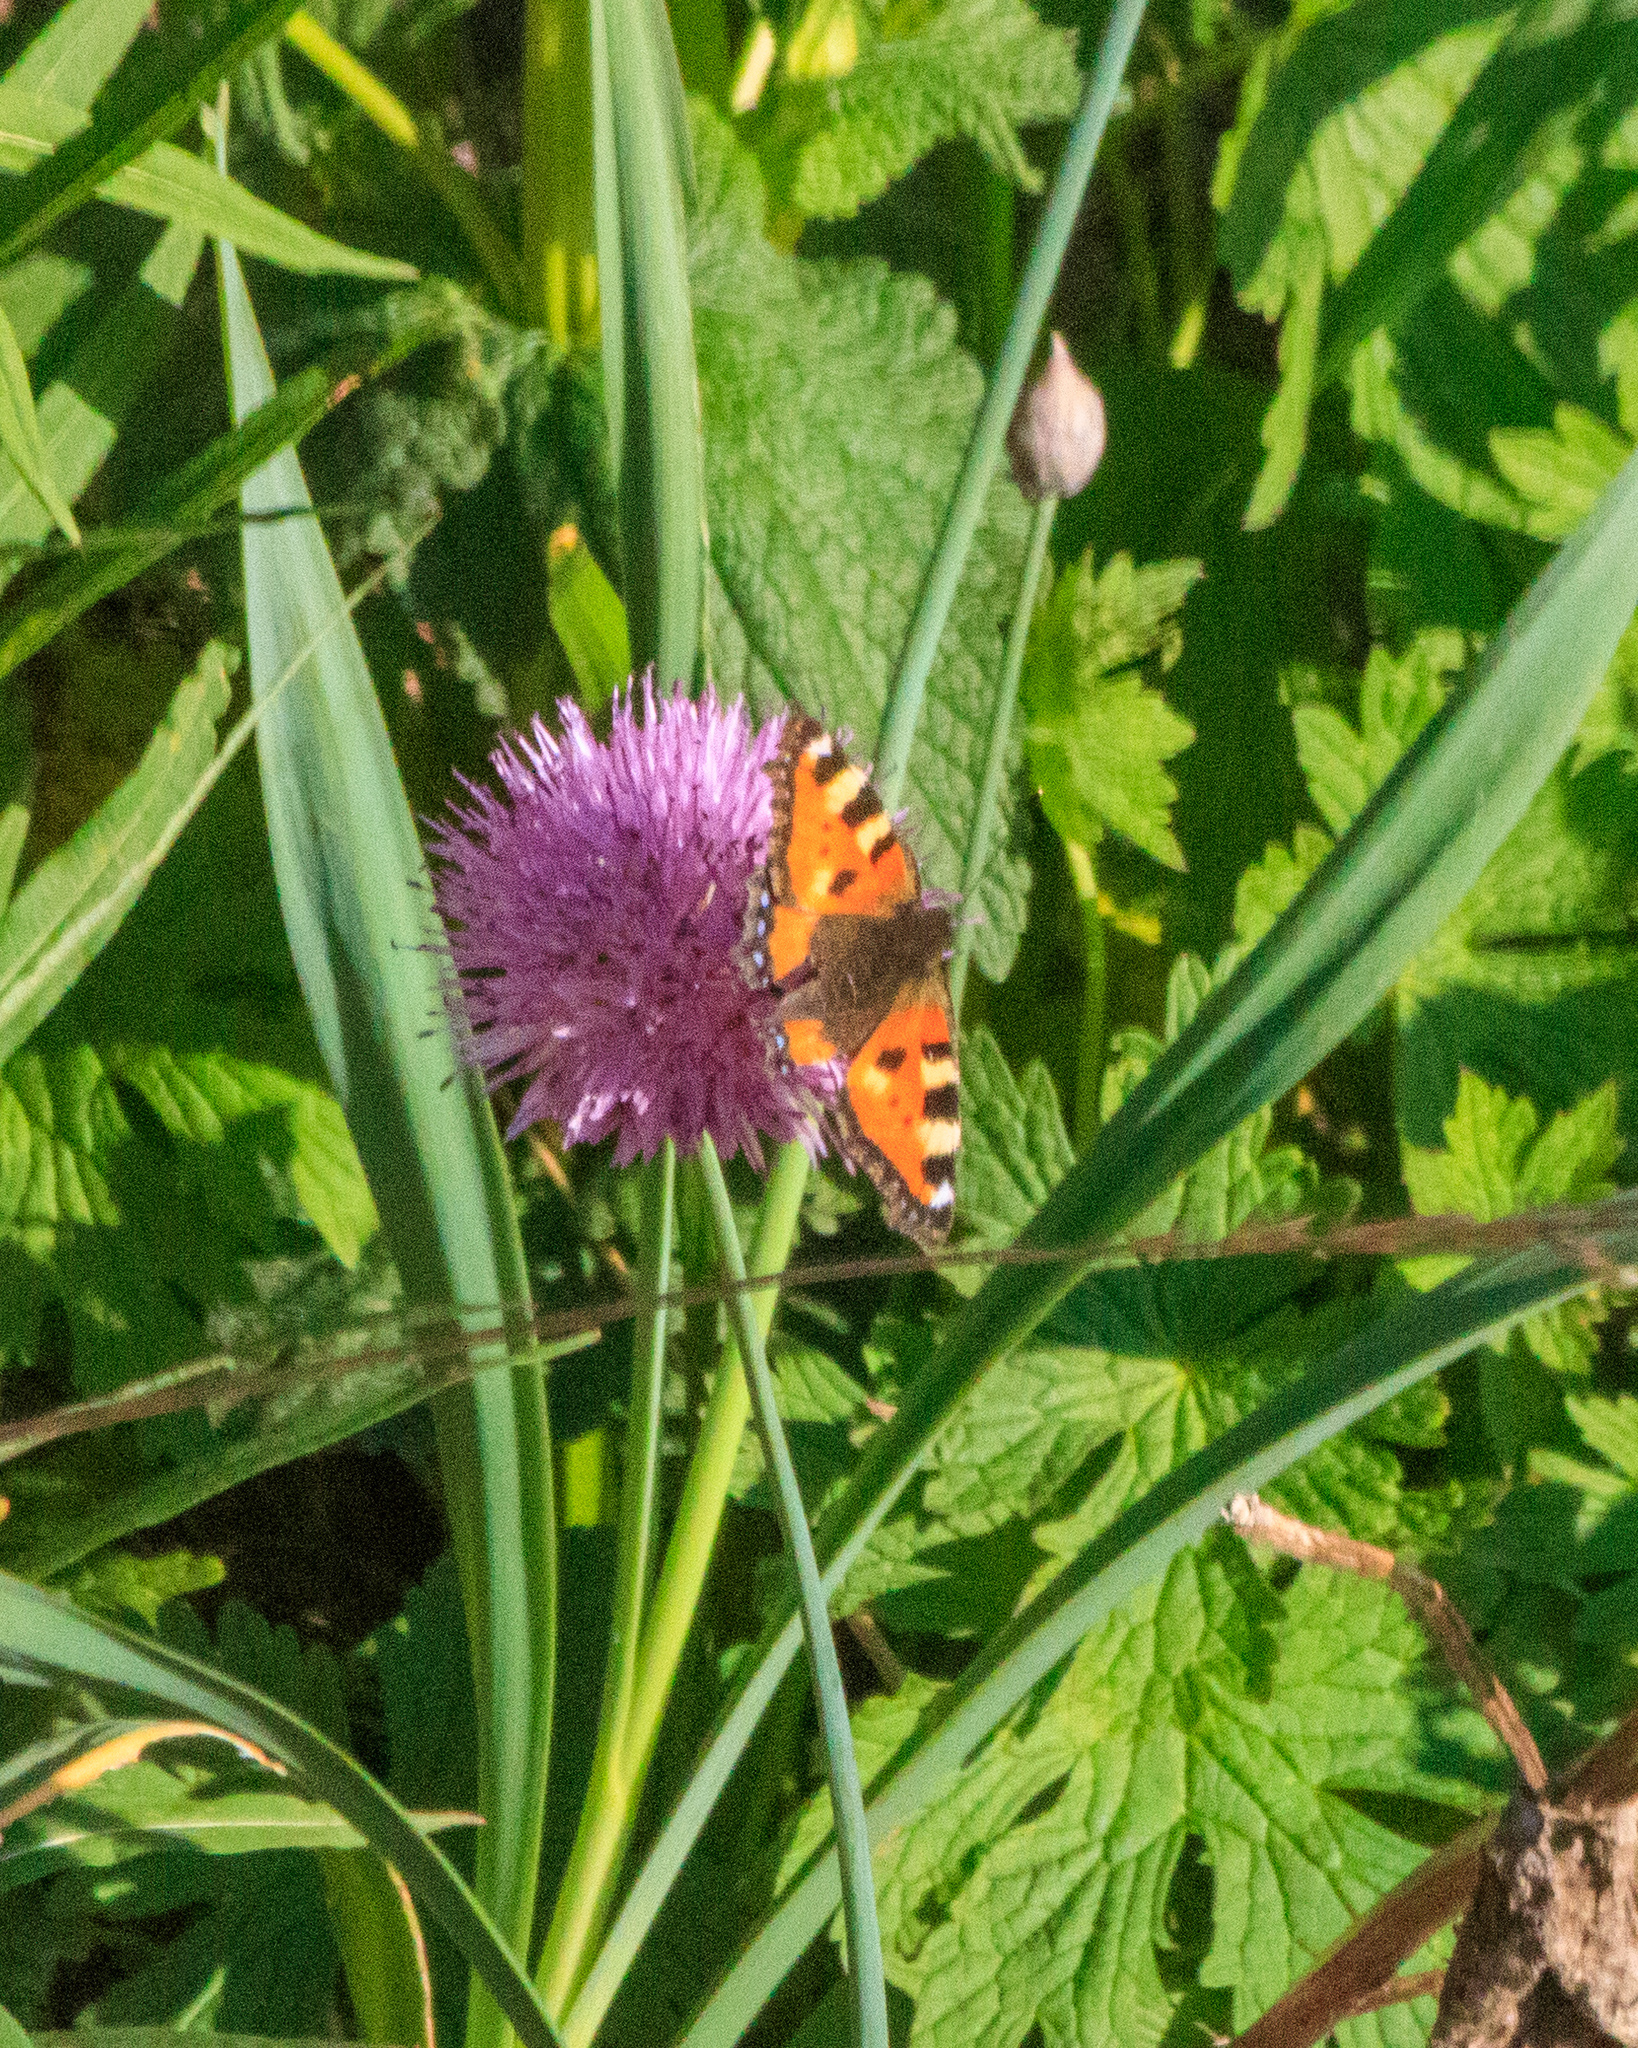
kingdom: Animalia
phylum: Arthropoda
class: Insecta
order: Lepidoptera
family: Nymphalidae
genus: Aglais
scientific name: Aglais urticae
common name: Small tortoiseshell
